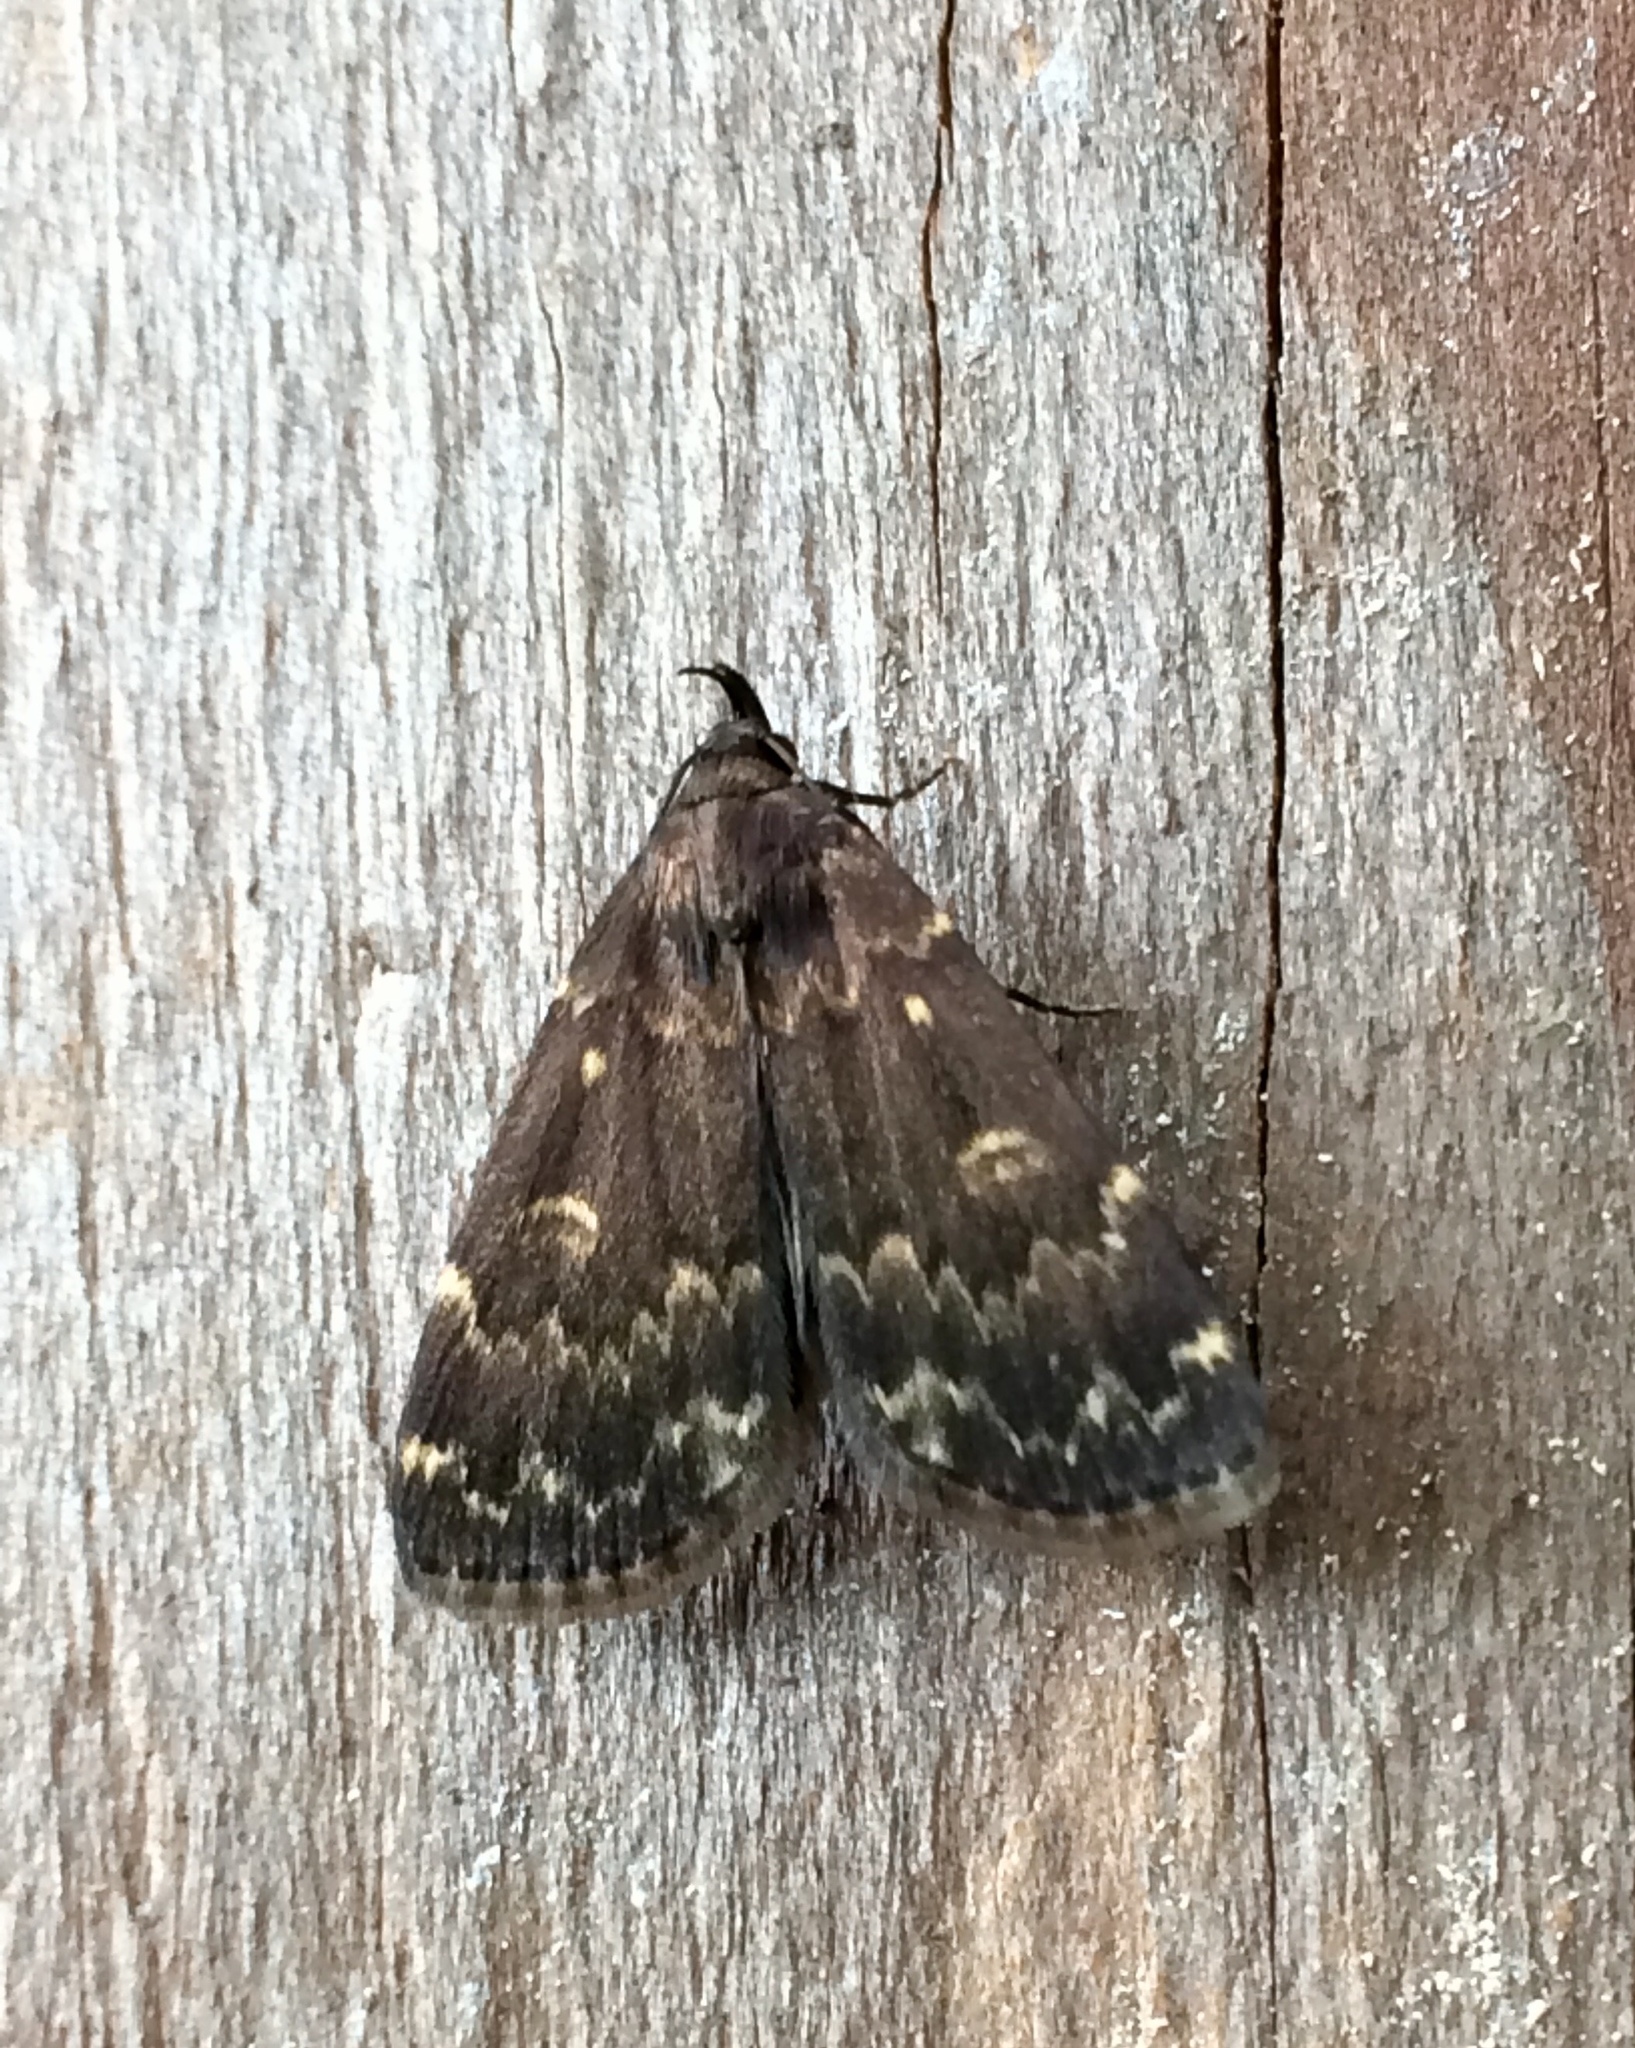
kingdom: Animalia
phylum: Arthropoda
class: Insecta
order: Lepidoptera
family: Erebidae
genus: Idia
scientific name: Idia lubricalis
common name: Twin-striped tabby
